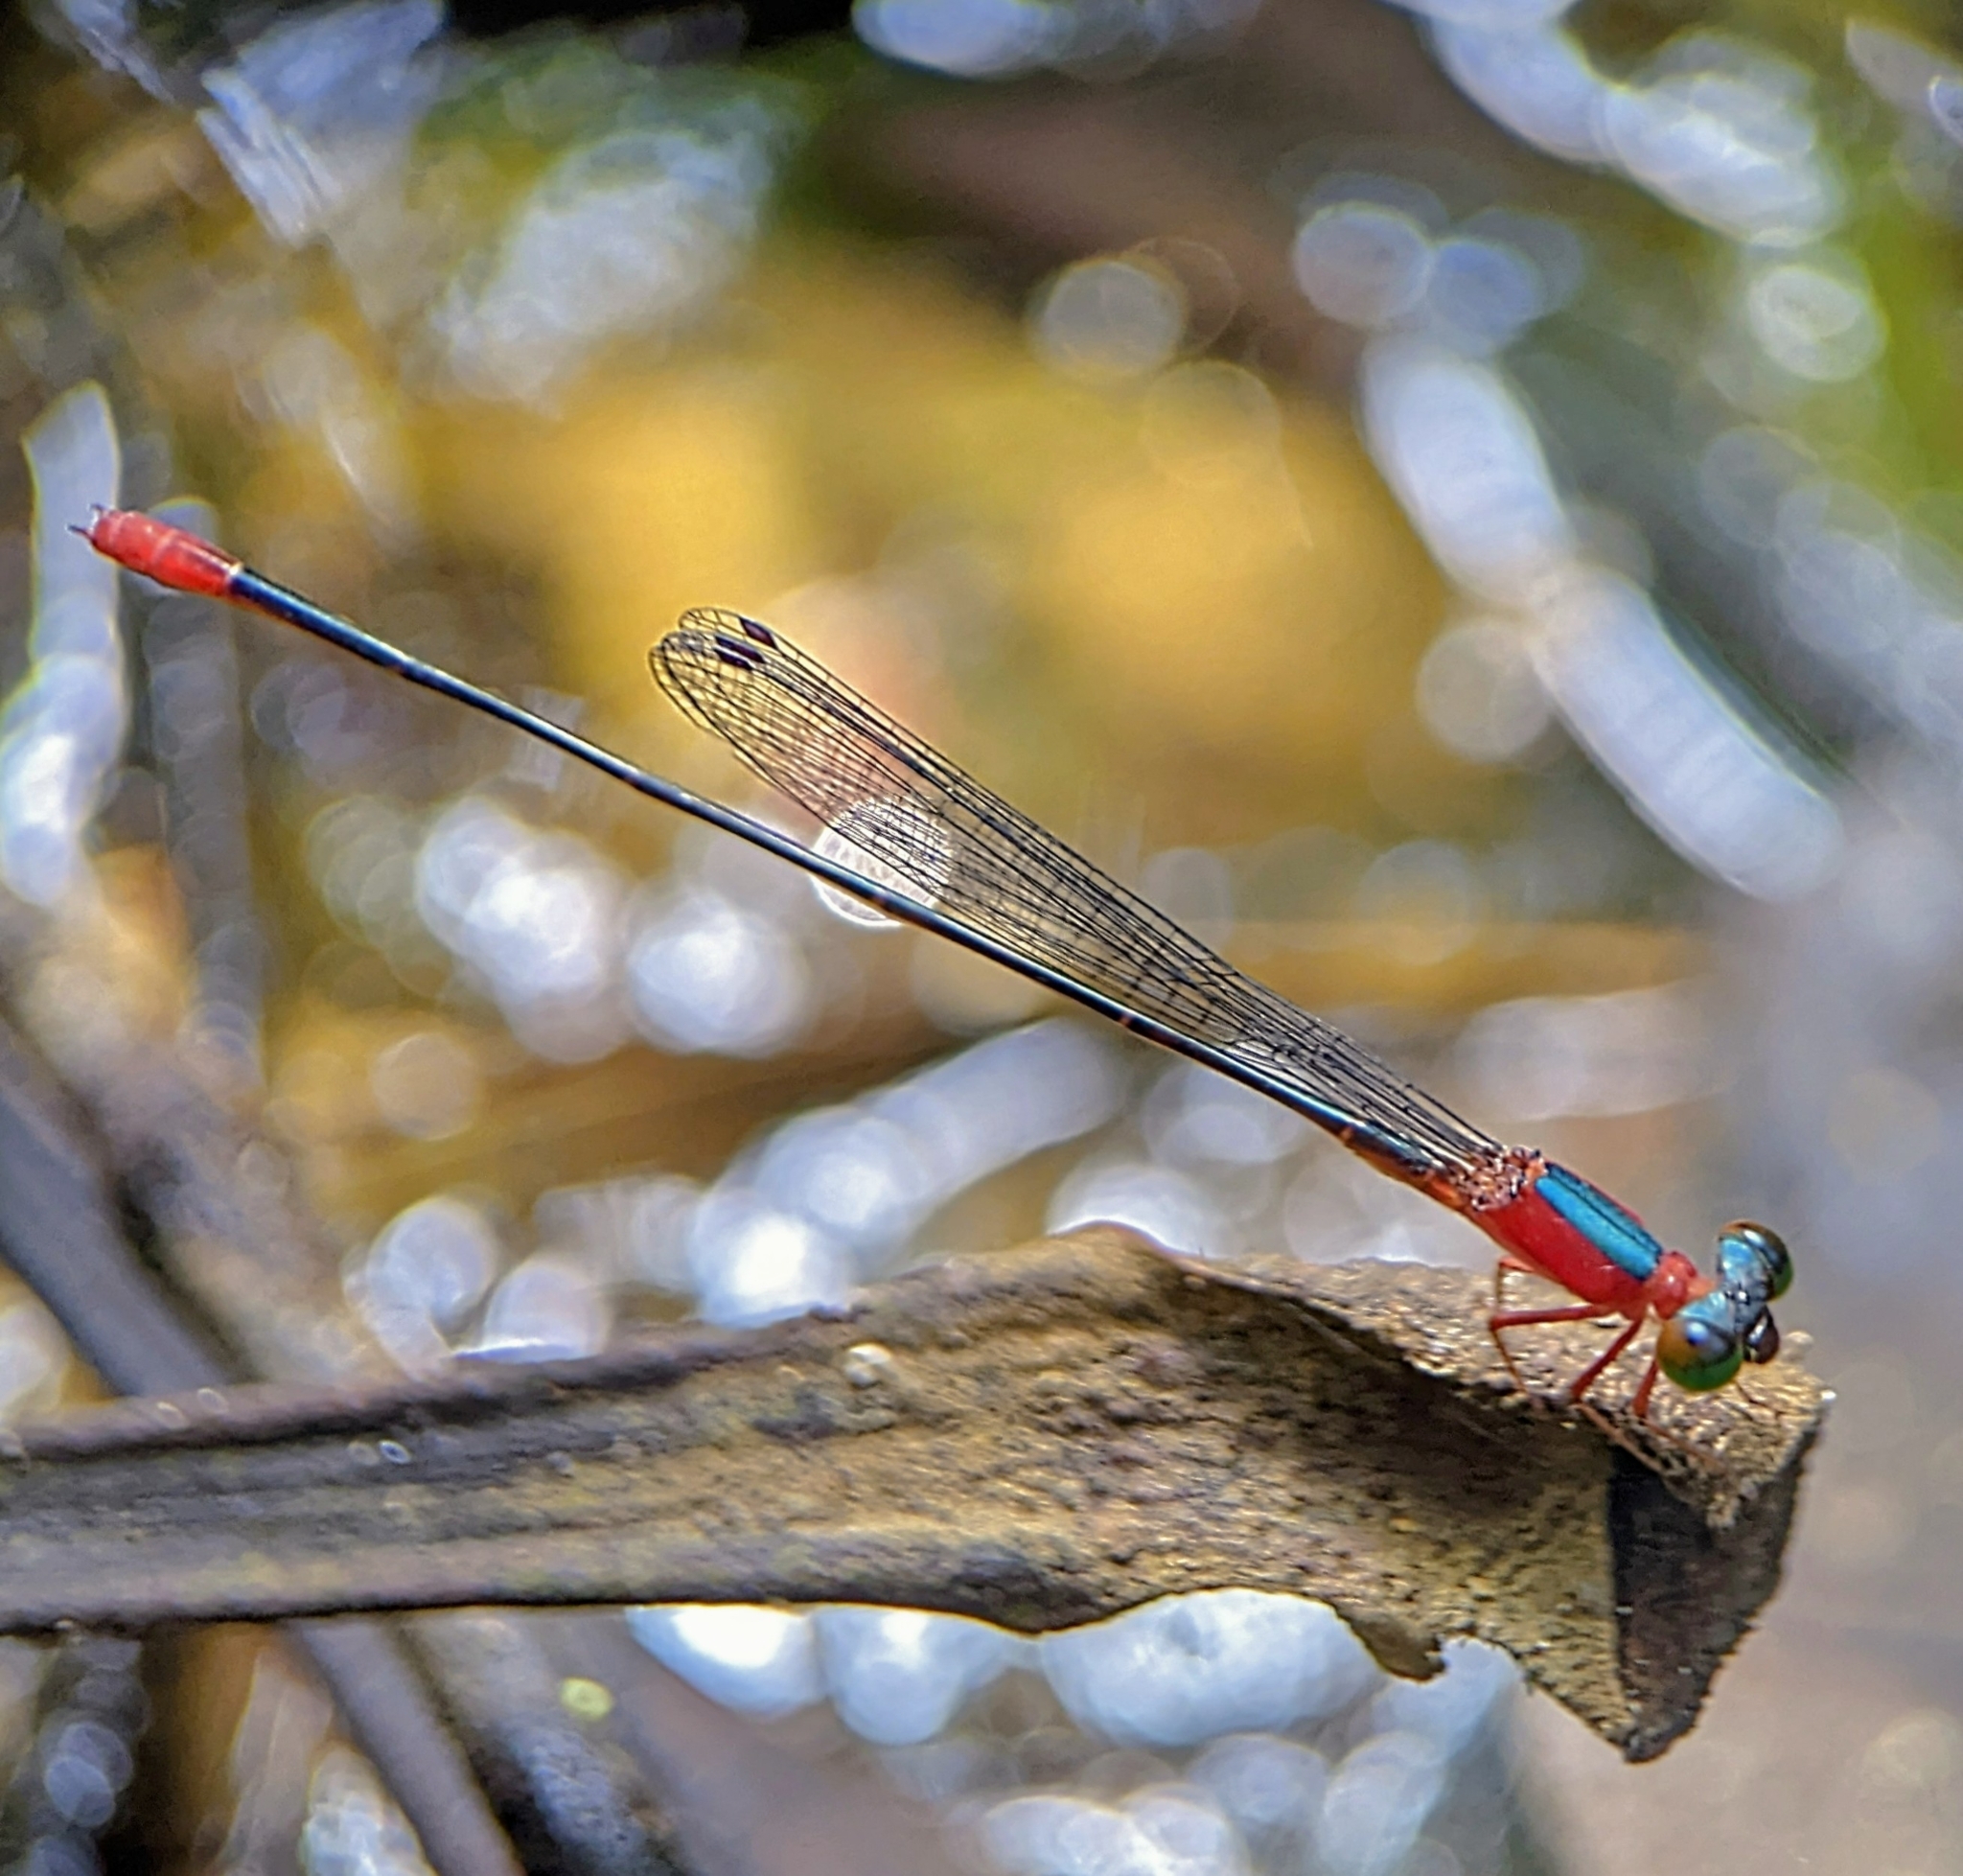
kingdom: Animalia
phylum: Arthropoda
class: Insecta
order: Odonata
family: Coenagrionidae
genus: Teinobasis
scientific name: Teinobasis ruficollis
